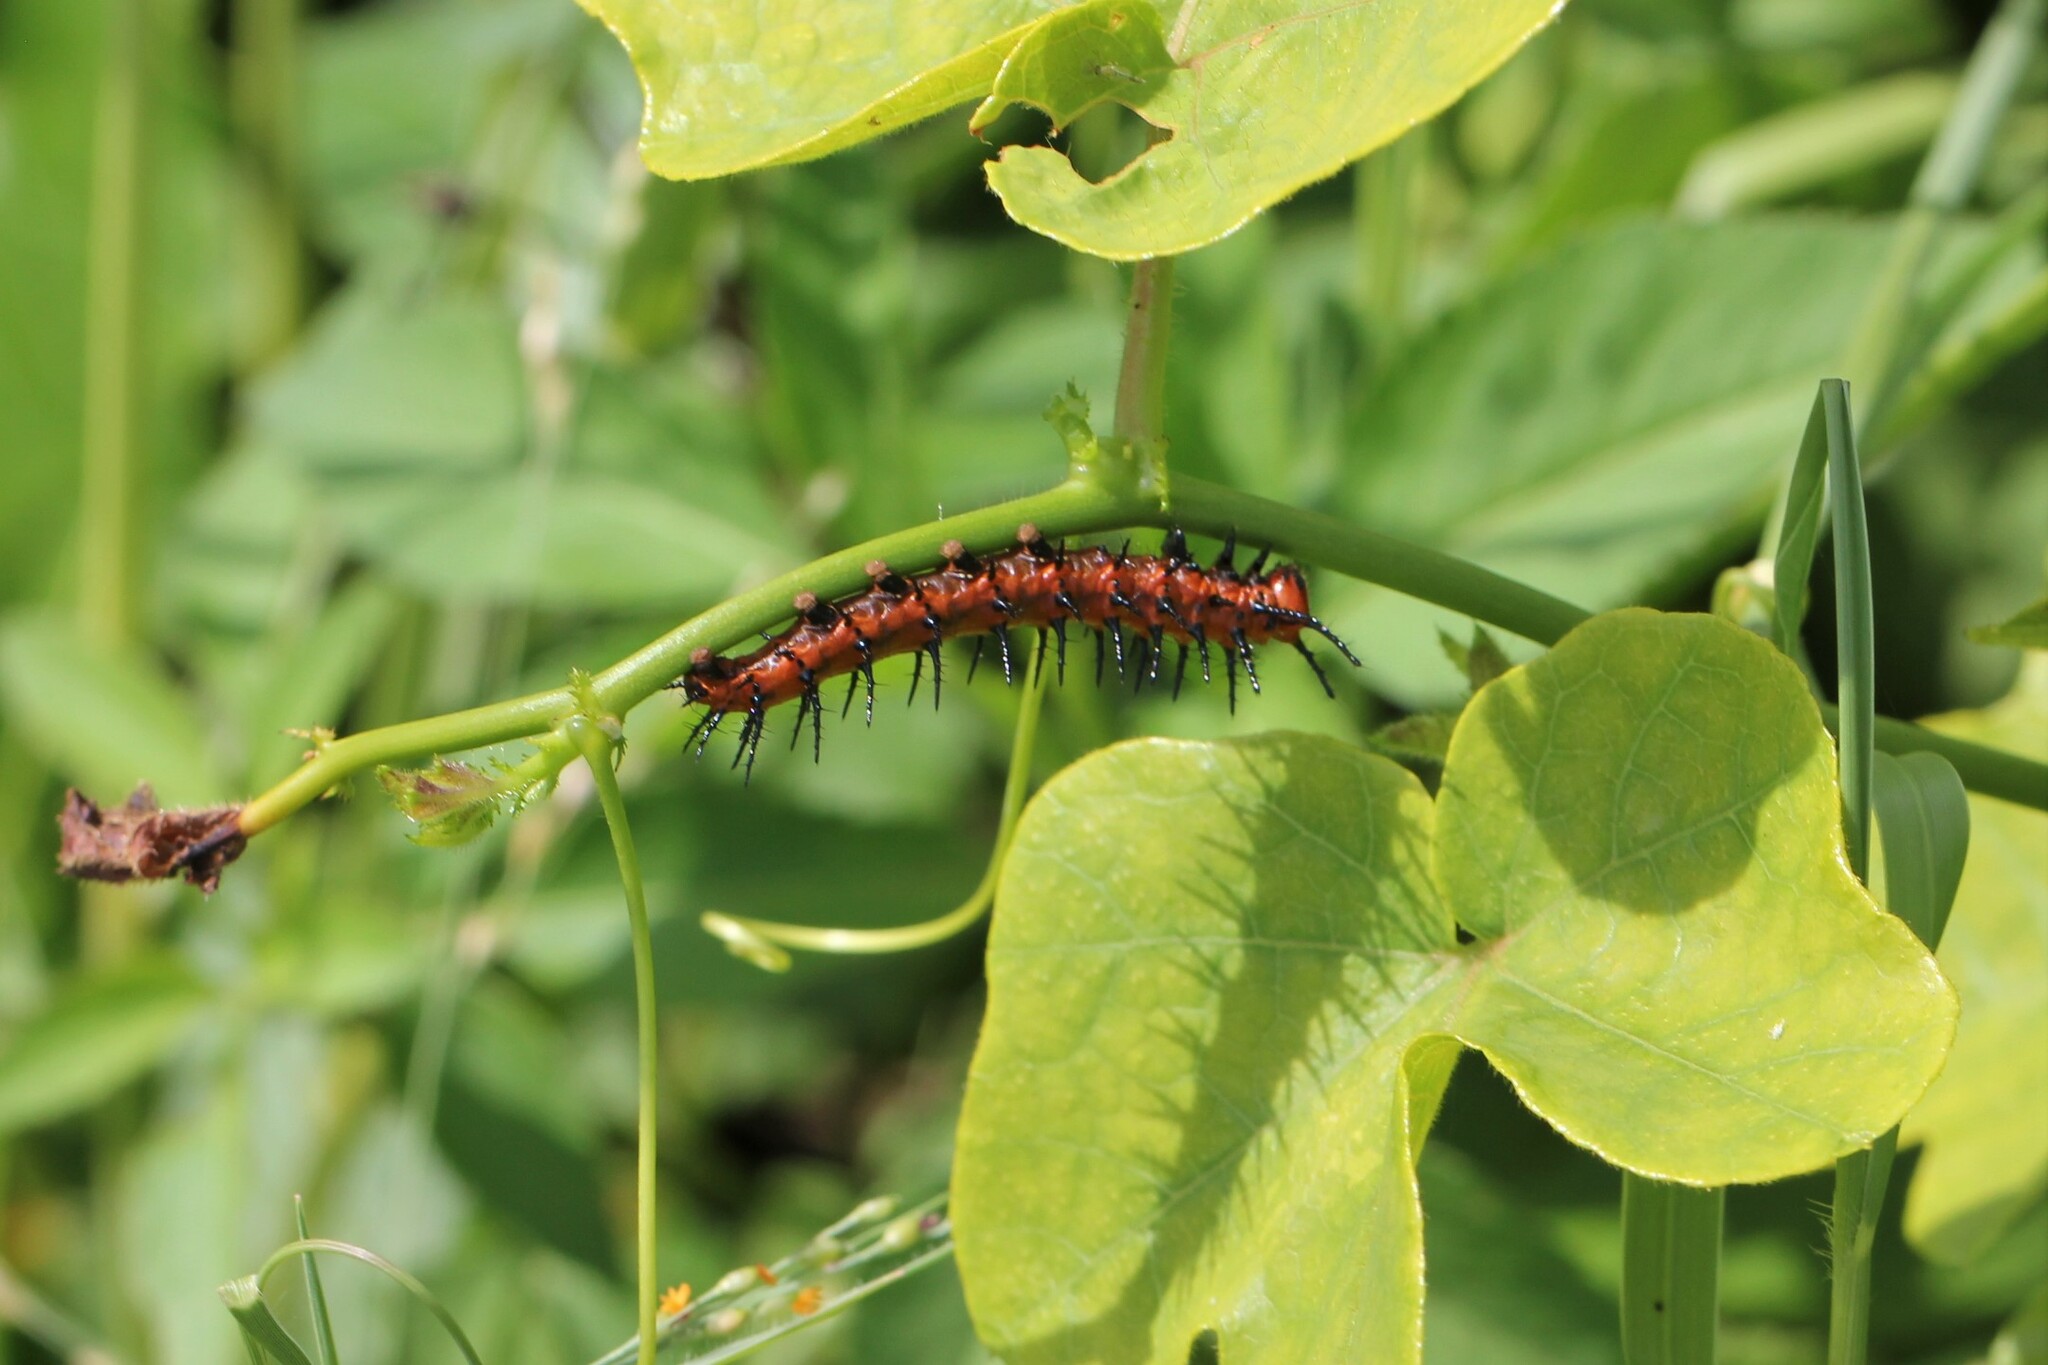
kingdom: Animalia
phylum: Arthropoda
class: Insecta
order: Lepidoptera
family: Nymphalidae
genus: Dione
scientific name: Dione vanillae
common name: Gulf fritillary
